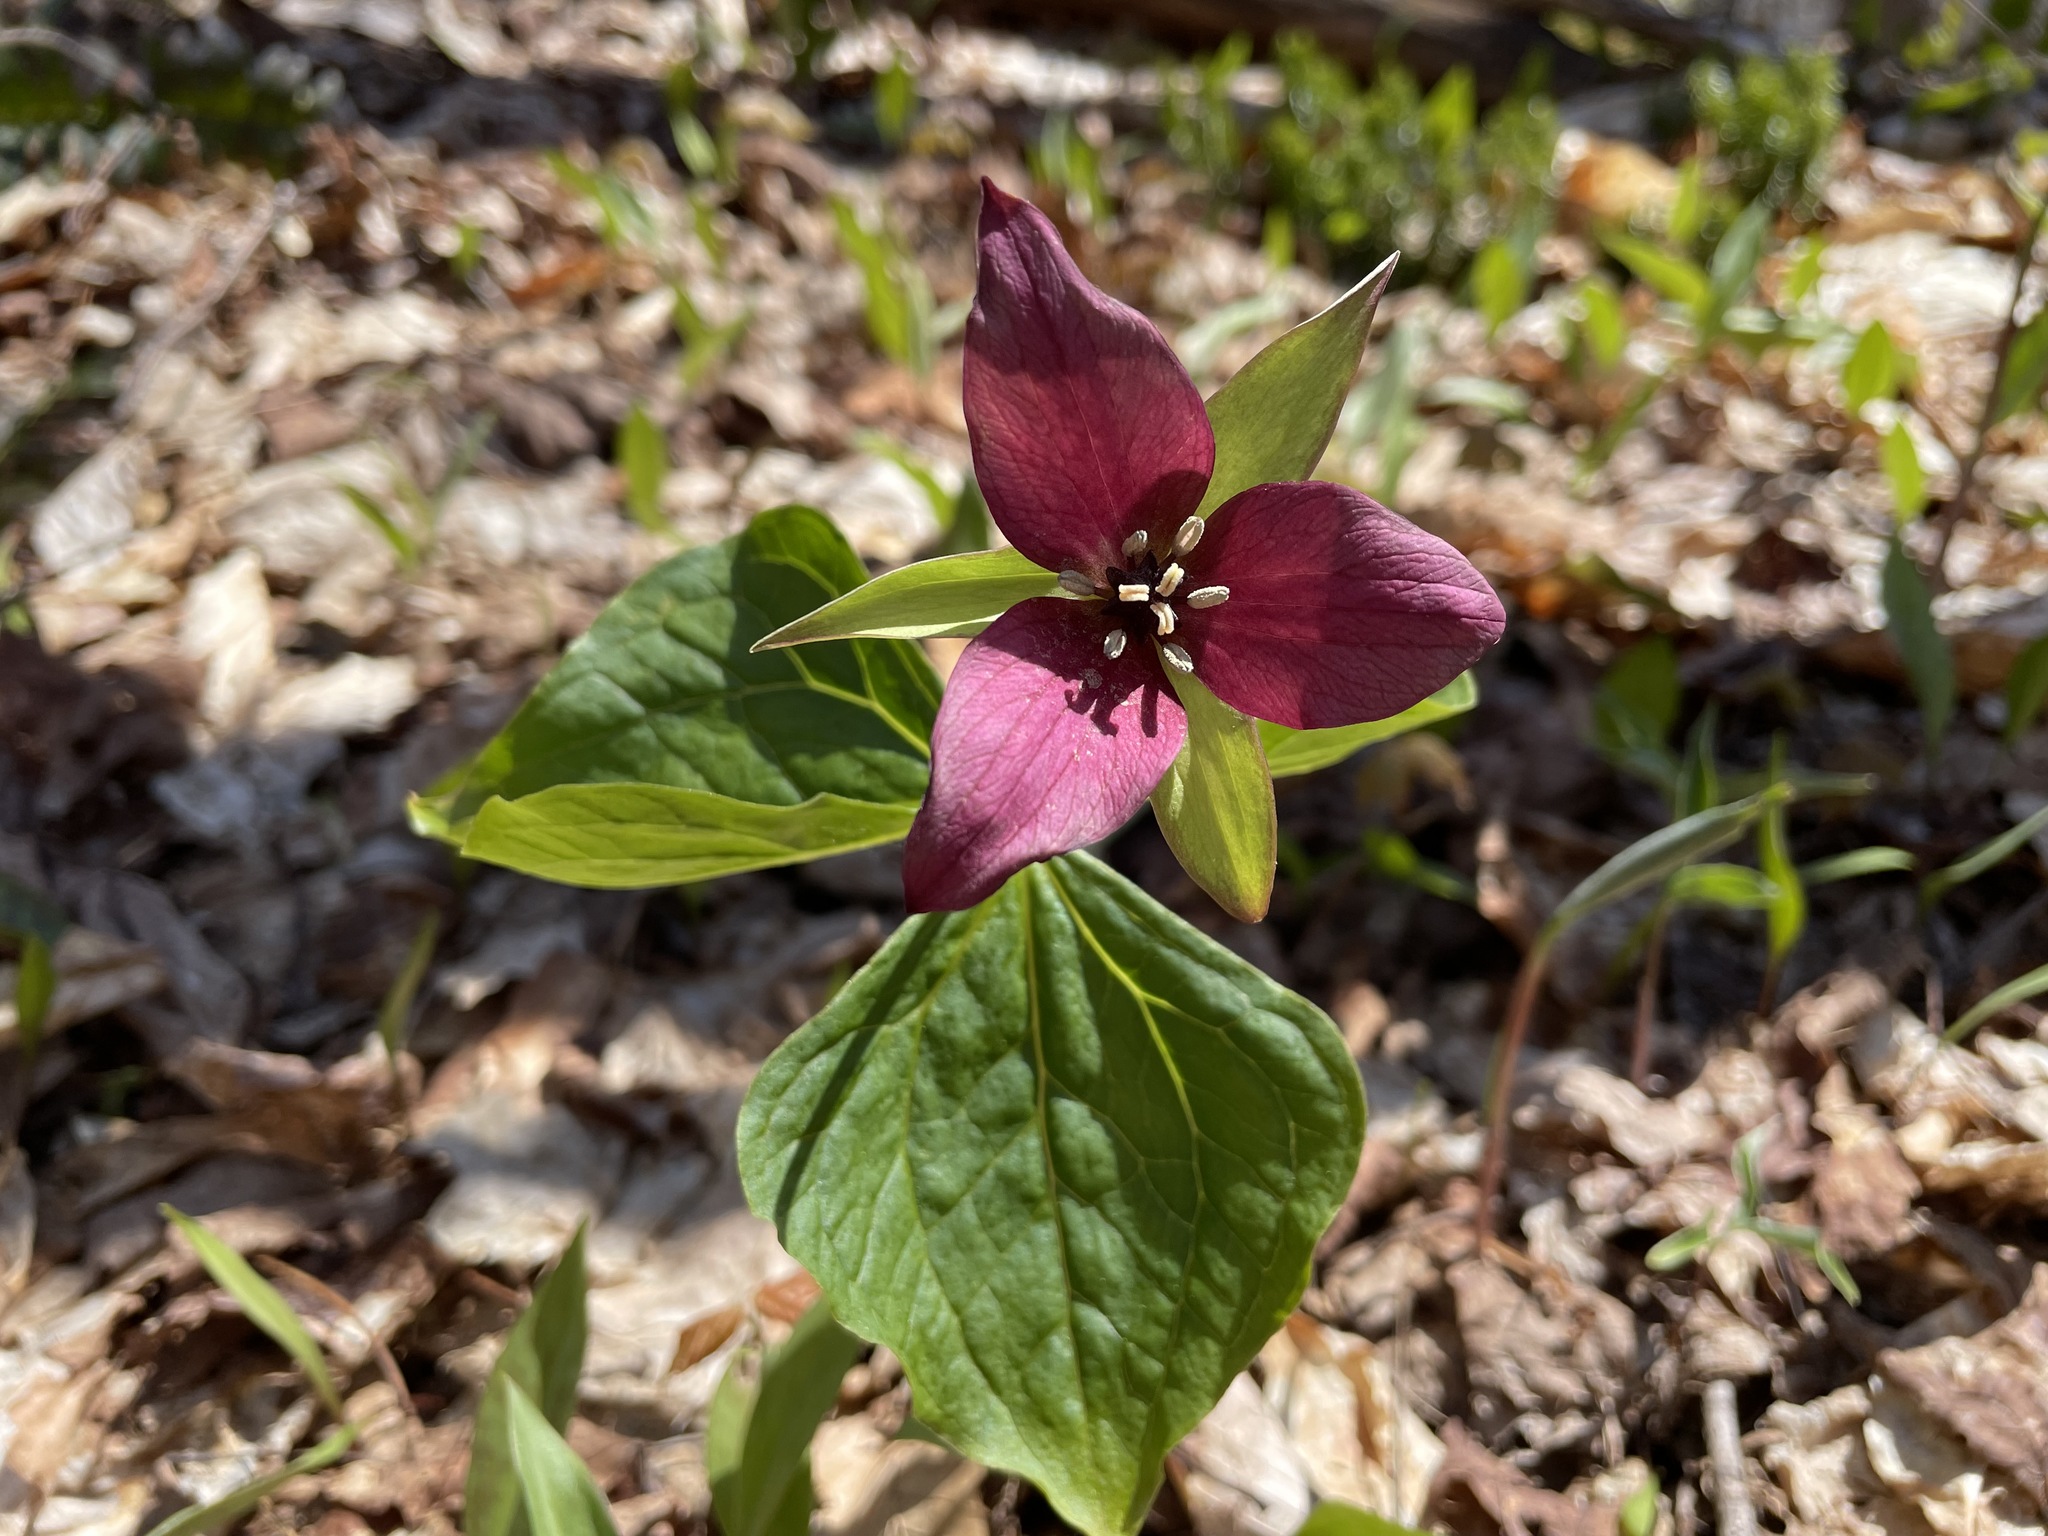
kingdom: Plantae
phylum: Tracheophyta
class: Liliopsida
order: Liliales
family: Melanthiaceae
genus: Trillium
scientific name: Trillium erectum
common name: Purple trillium
